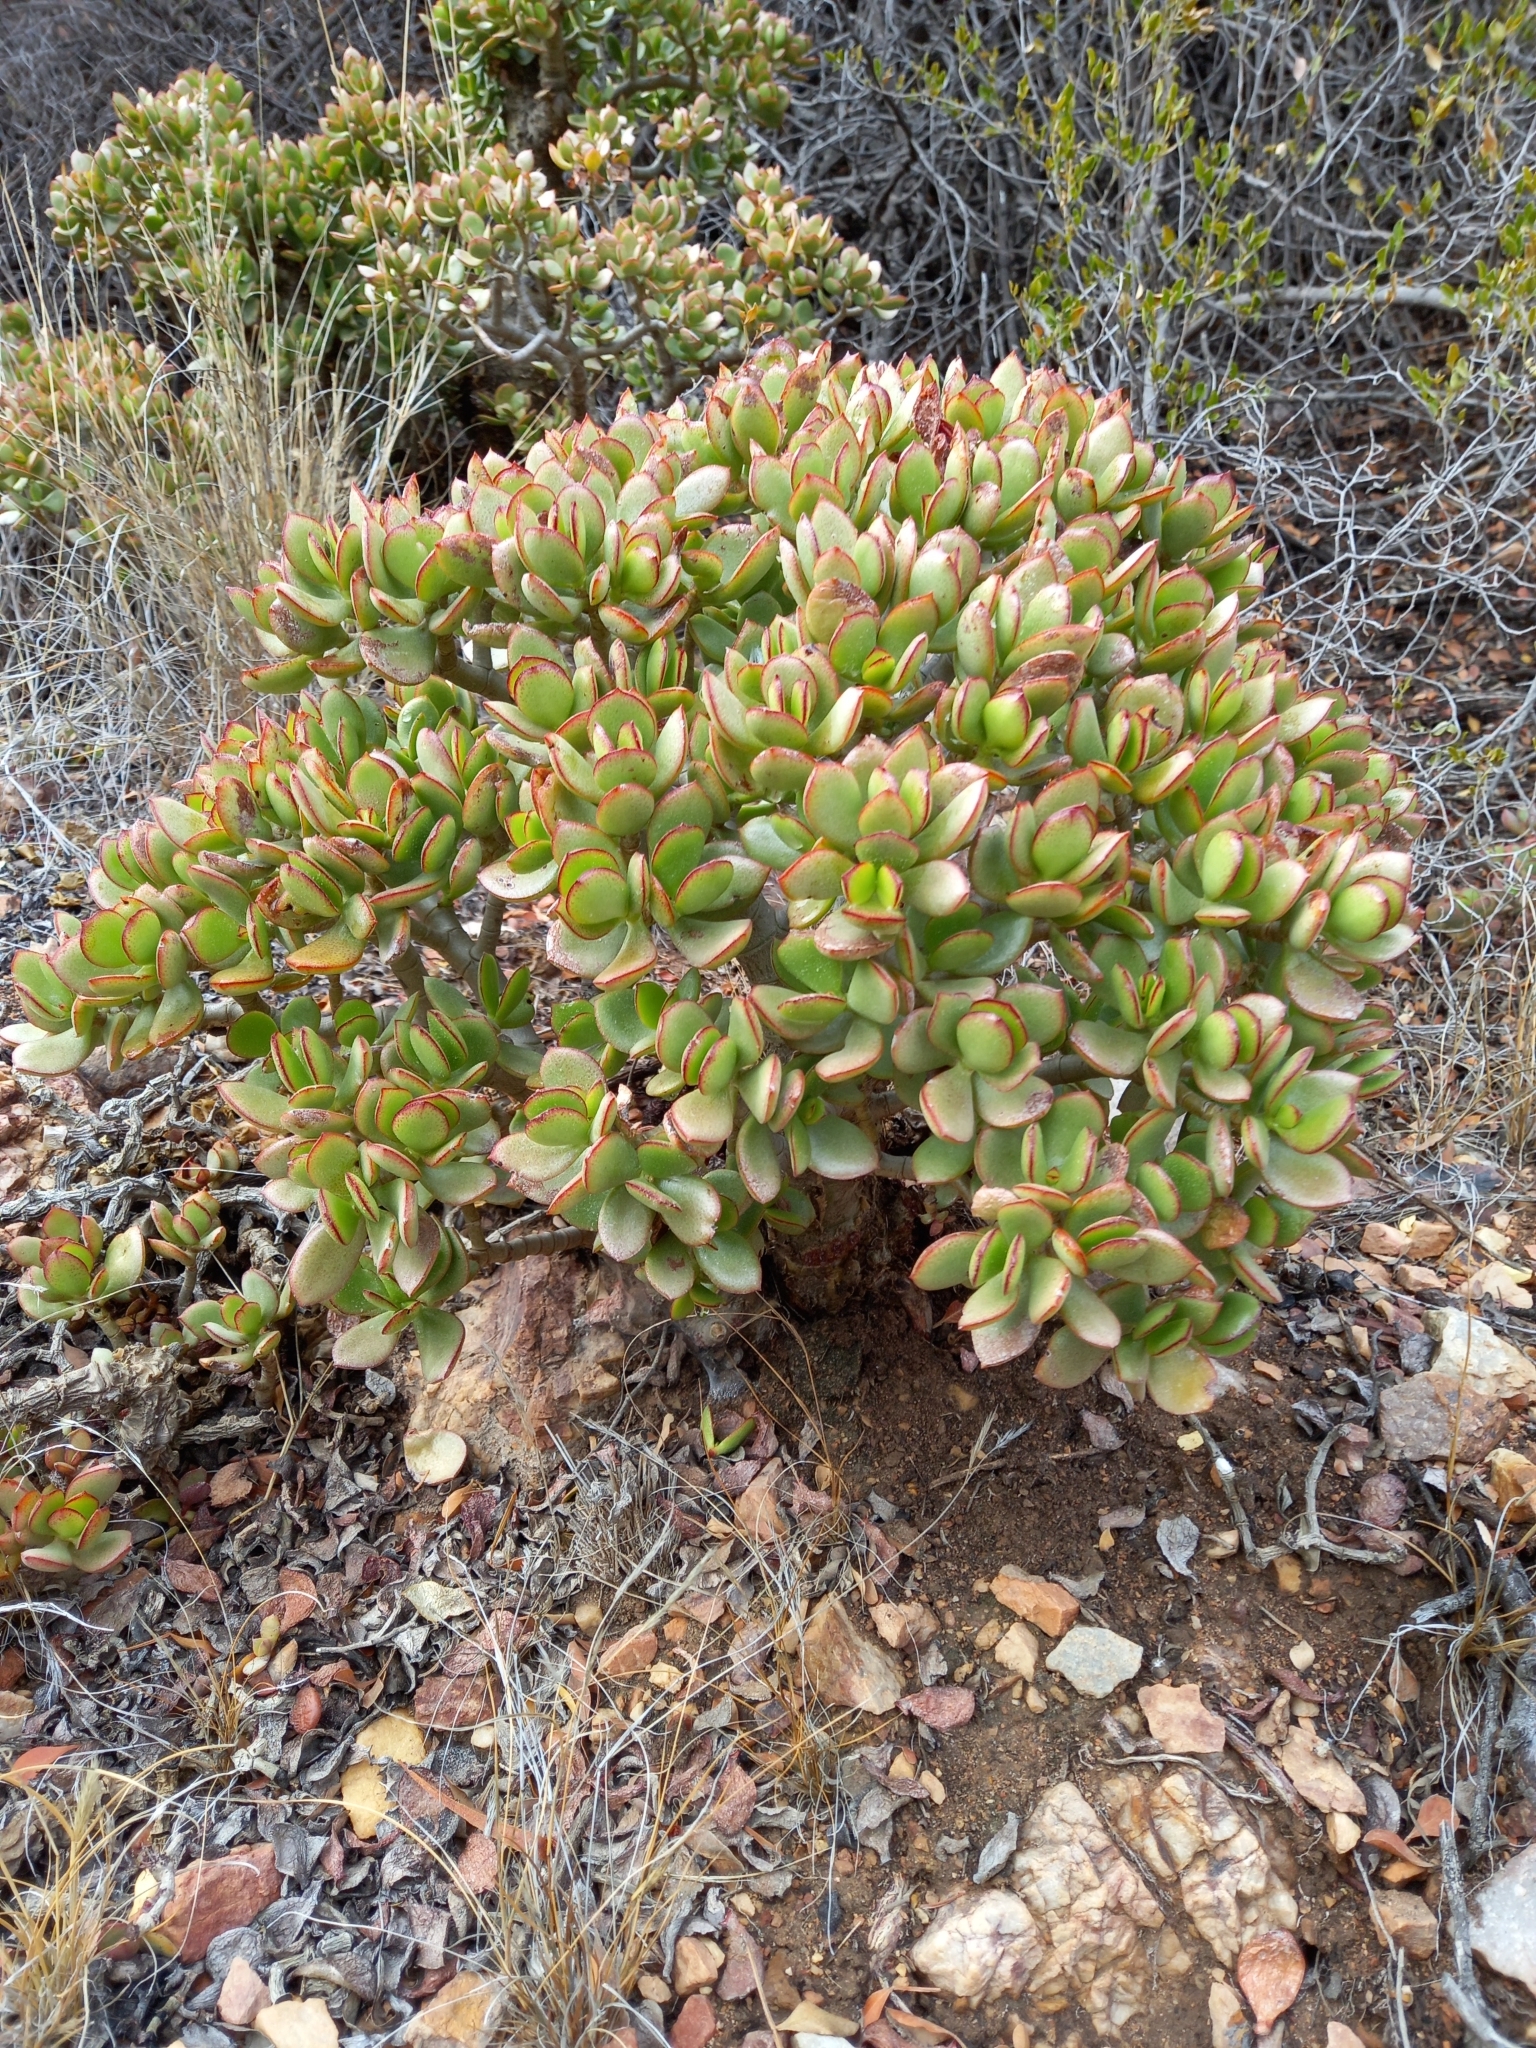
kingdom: Plantae
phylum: Tracheophyta
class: Magnoliopsida
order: Saxifragales
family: Crassulaceae
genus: Crassula
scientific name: Crassula ovata
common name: Jade plant
